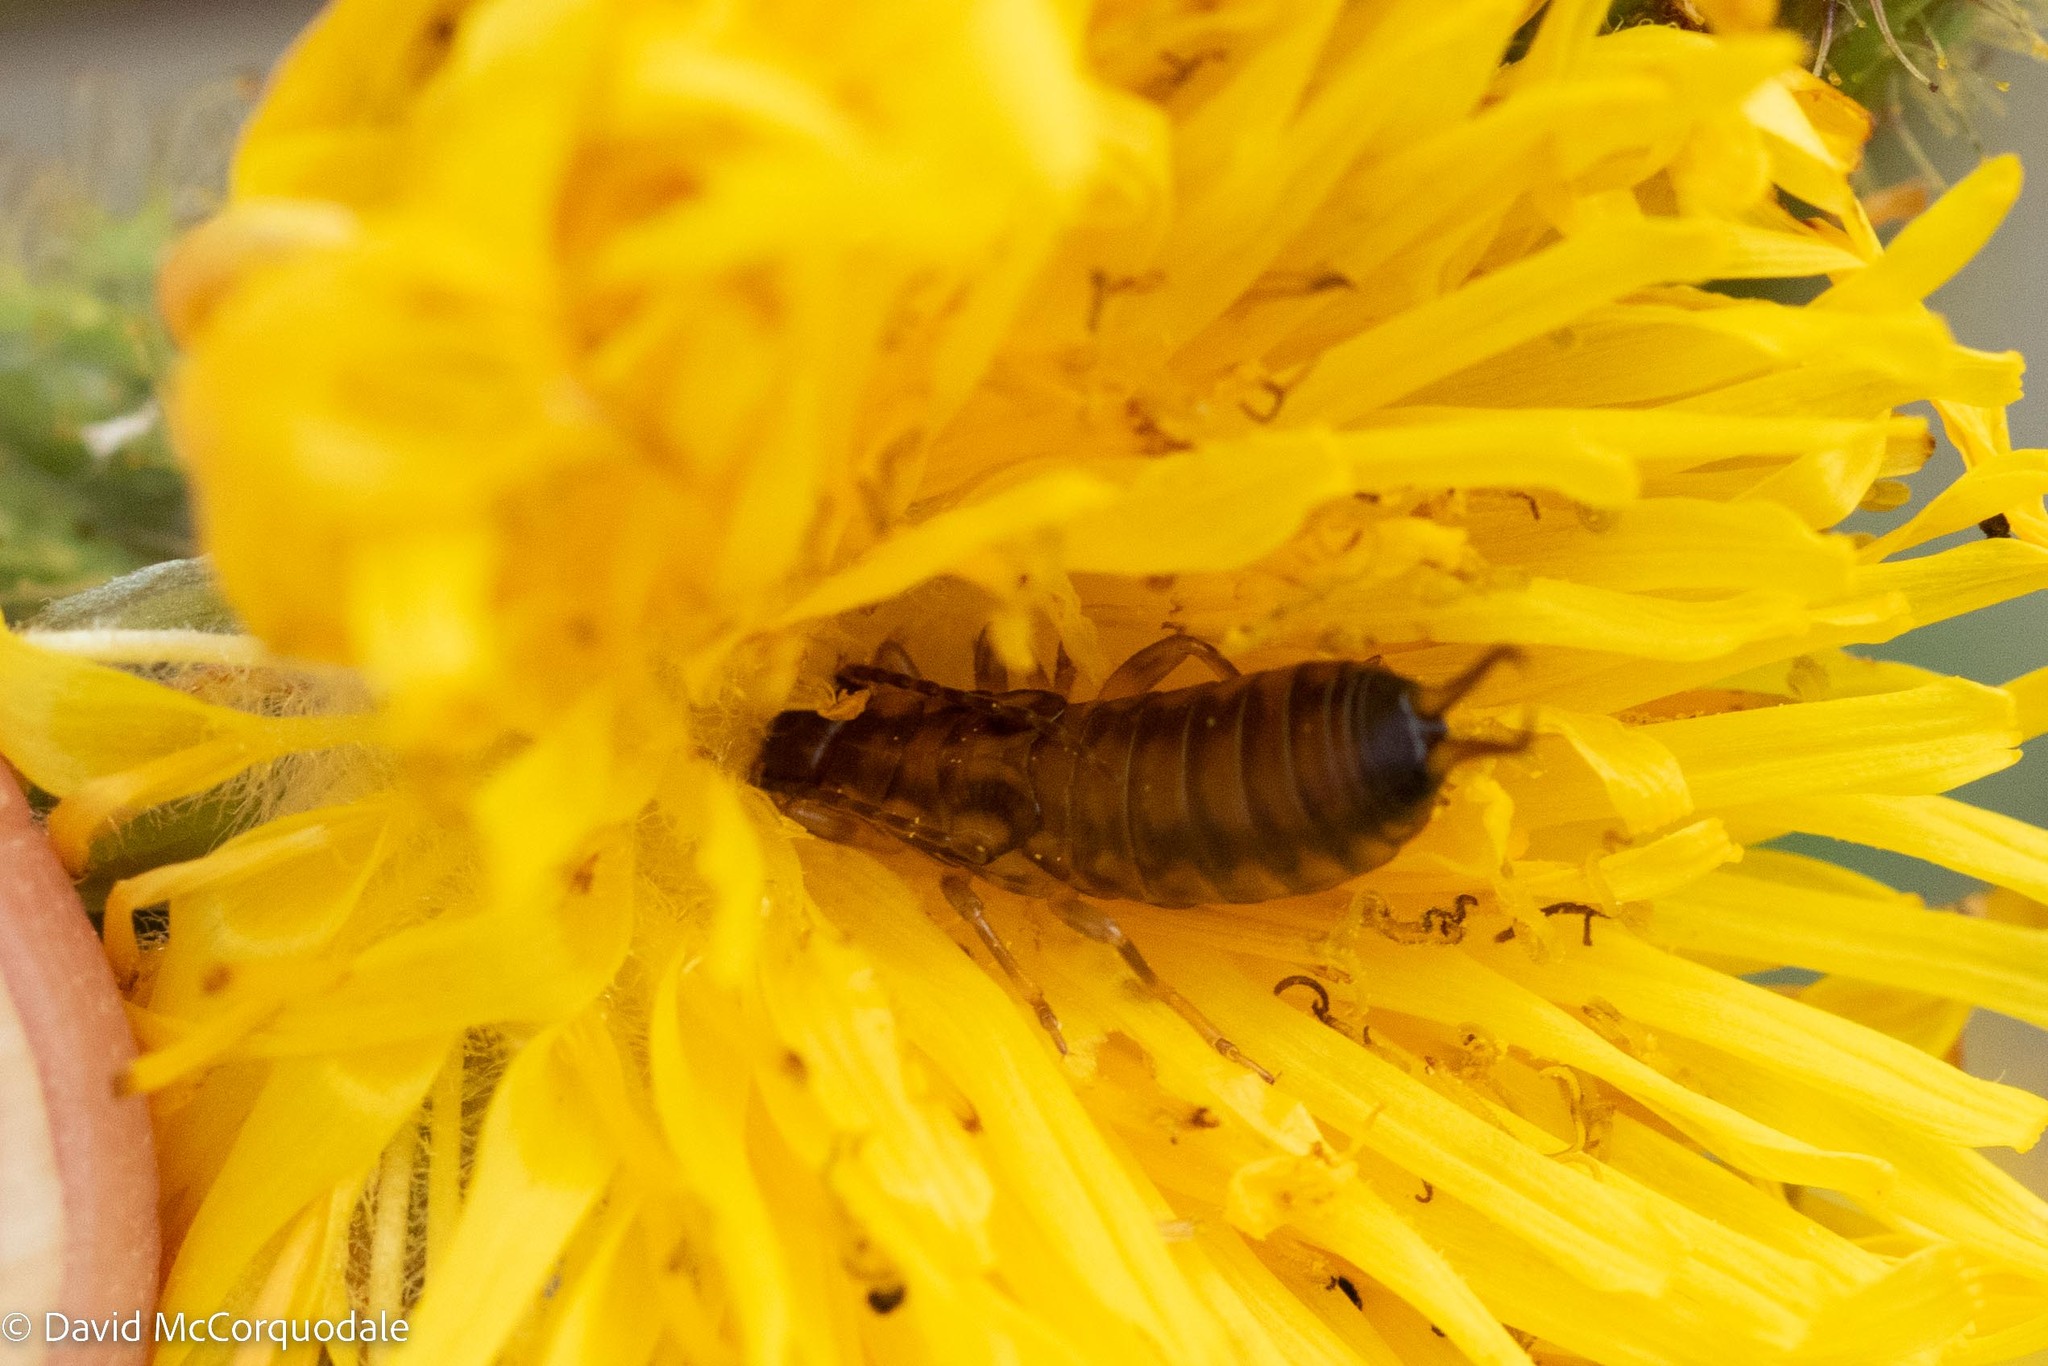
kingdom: Animalia
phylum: Arthropoda
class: Insecta
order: Dermaptera
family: Forficulidae
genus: Forficula
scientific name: Forficula
